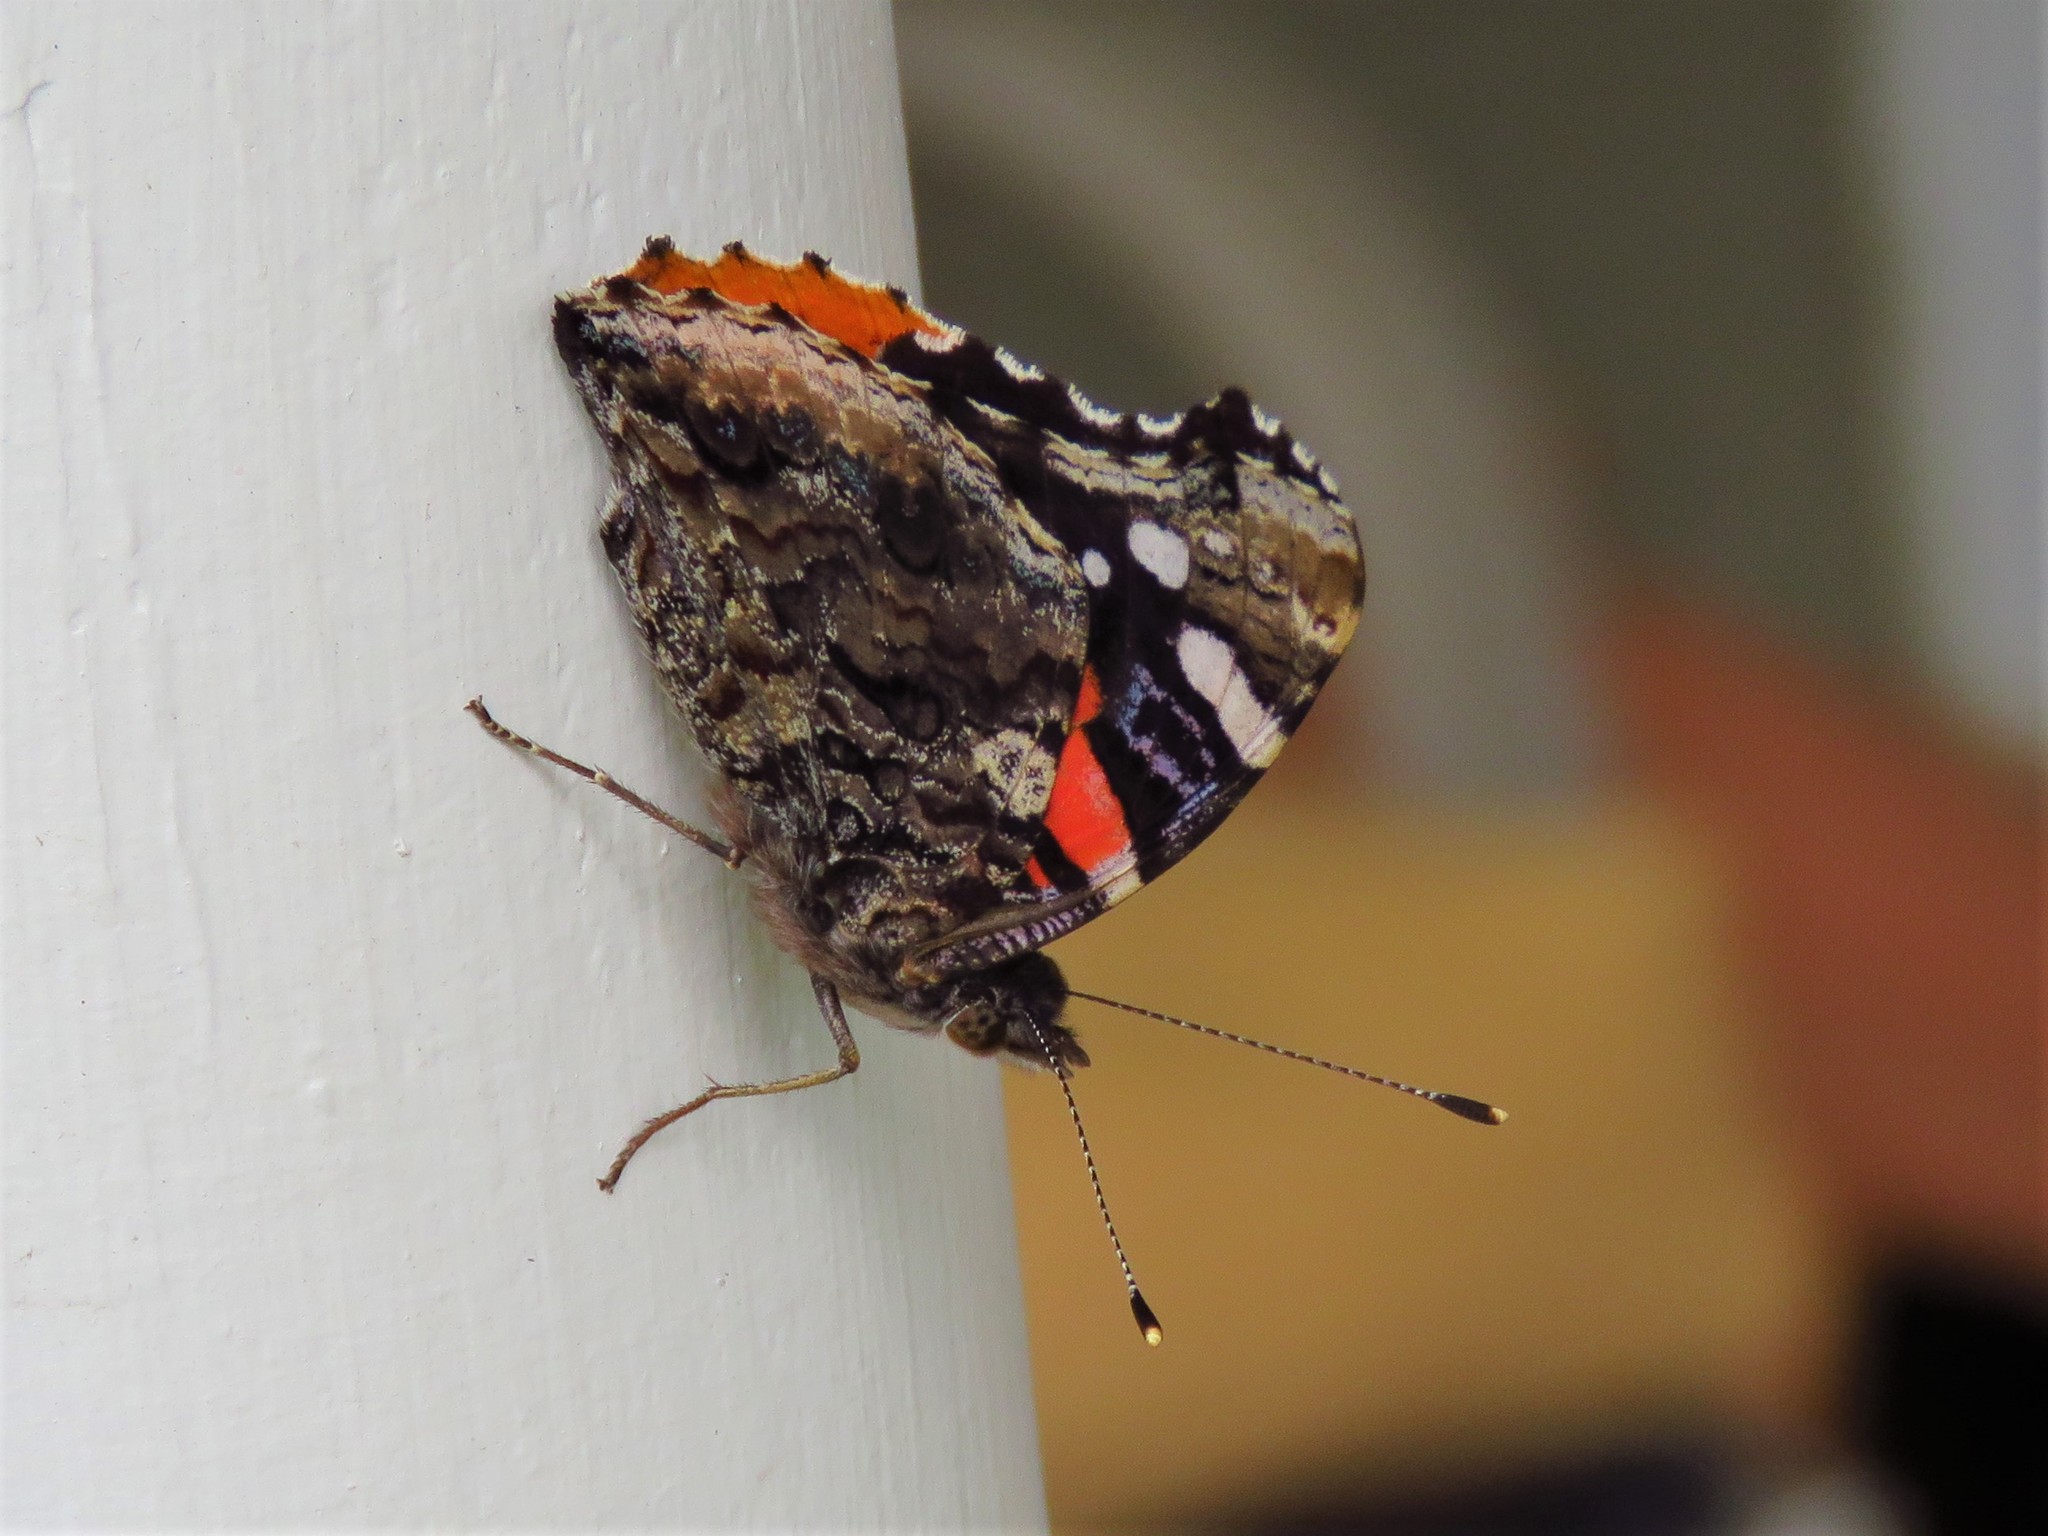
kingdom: Animalia
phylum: Arthropoda
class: Insecta
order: Lepidoptera
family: Nymphalidae
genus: Vanessa
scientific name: Vanessa atalanta
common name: Red admiral
